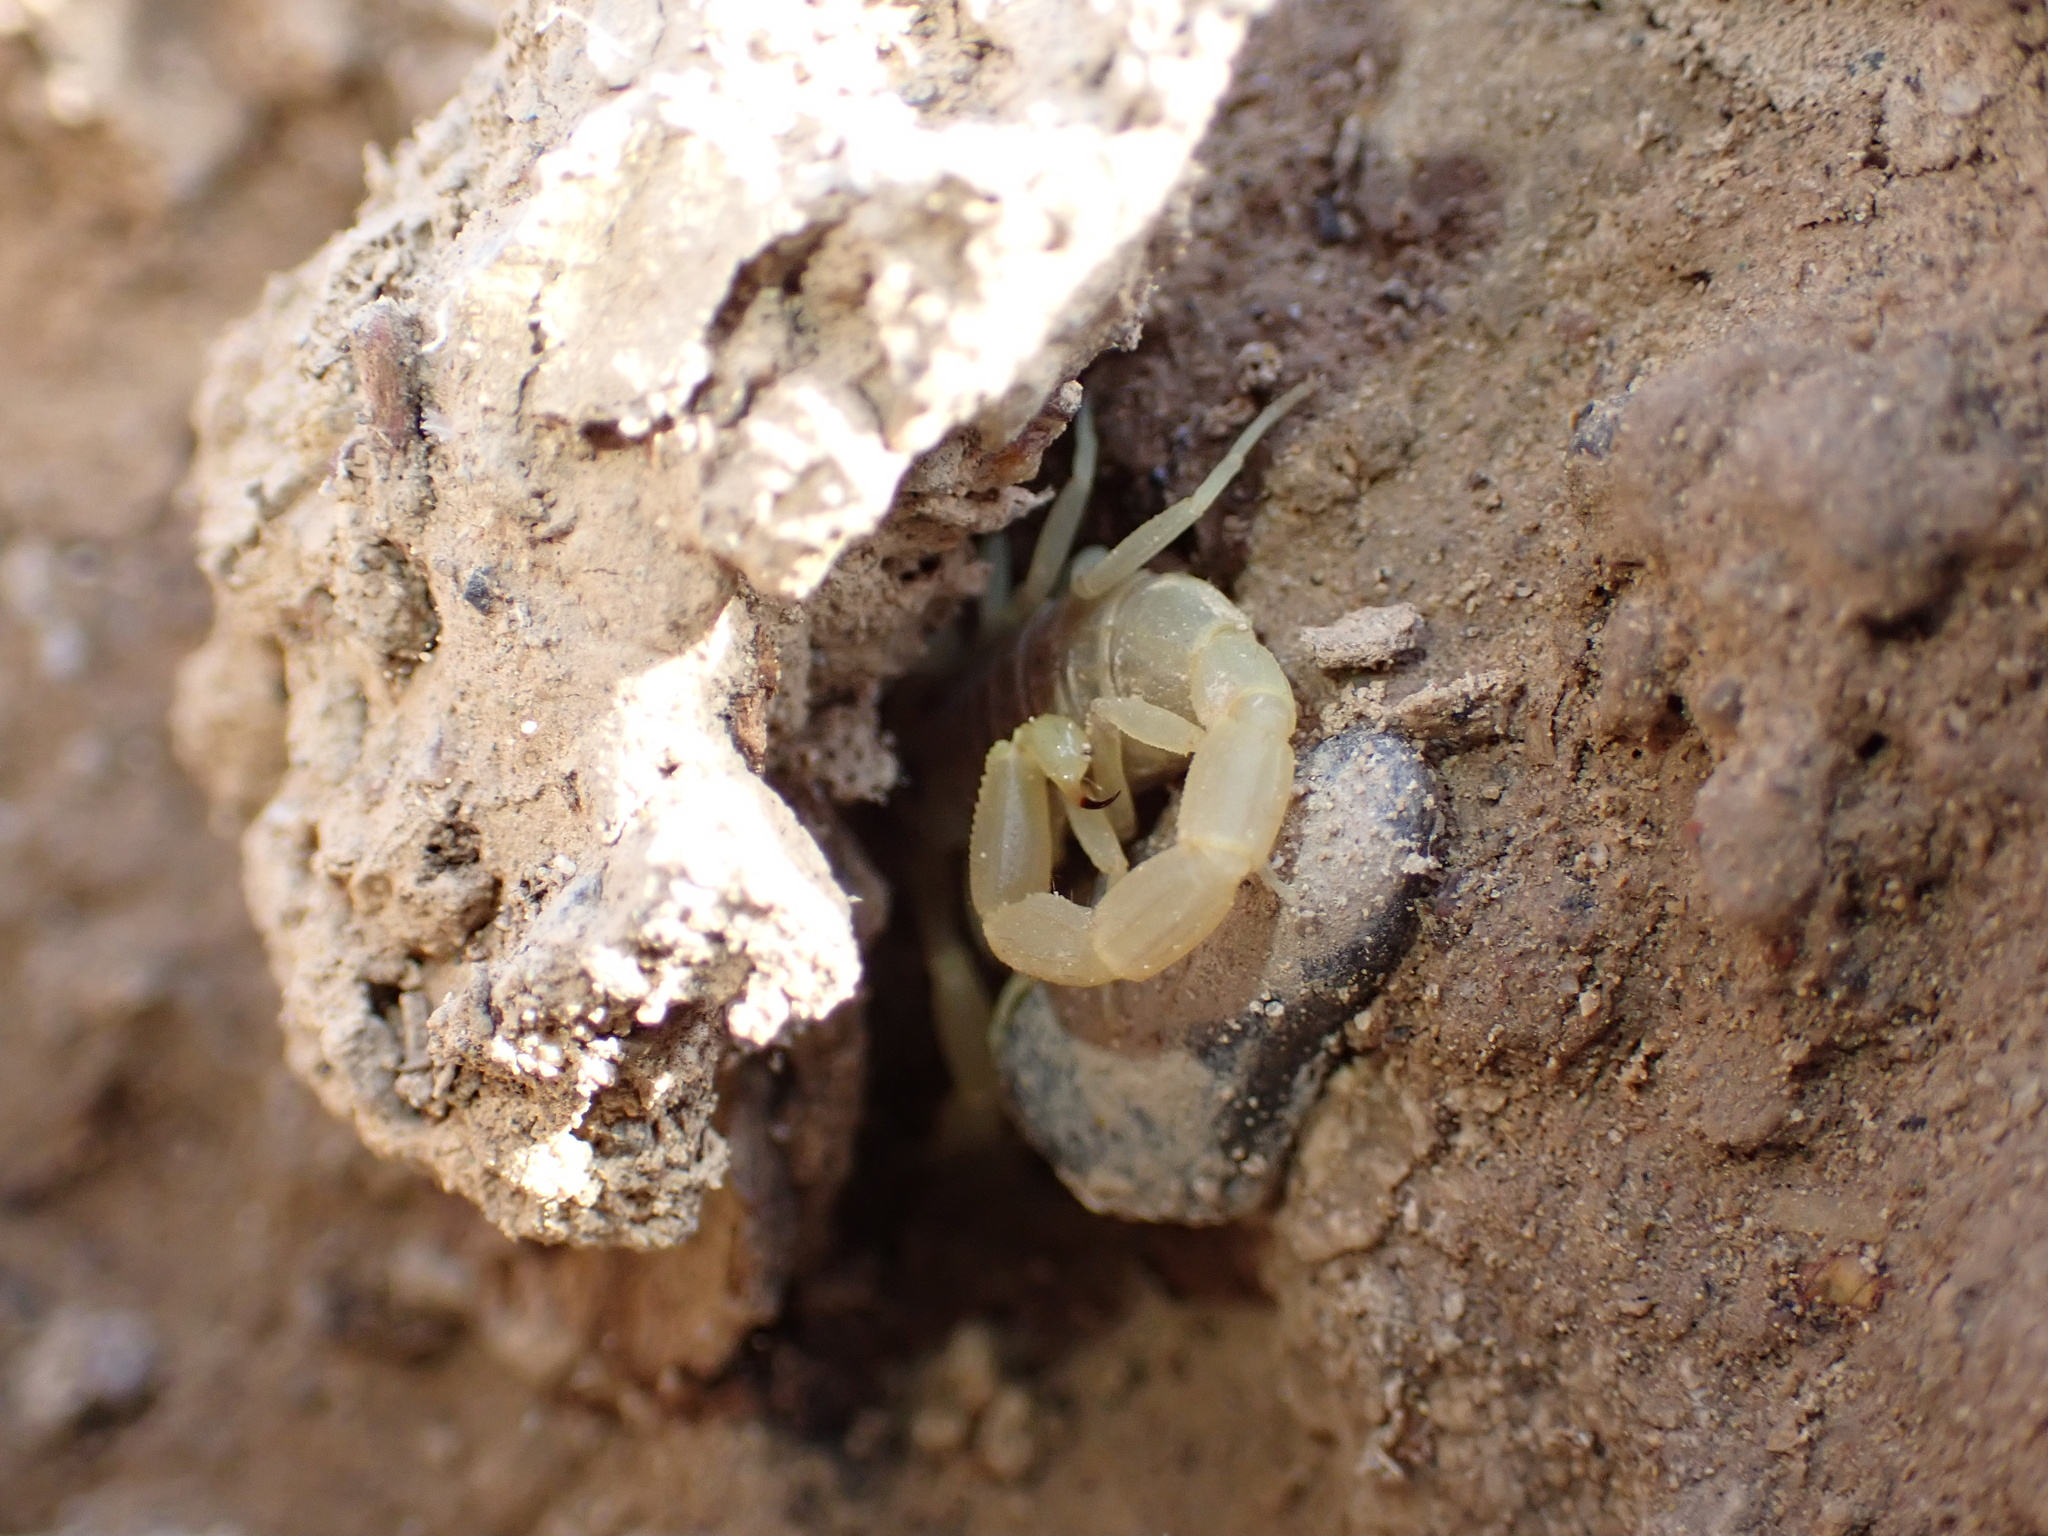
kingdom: Animalia
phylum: Arthropoda
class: Arachnida
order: Scorpiones
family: Buthidae
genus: Compsobuthus
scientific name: Compsobuthus jakesi
